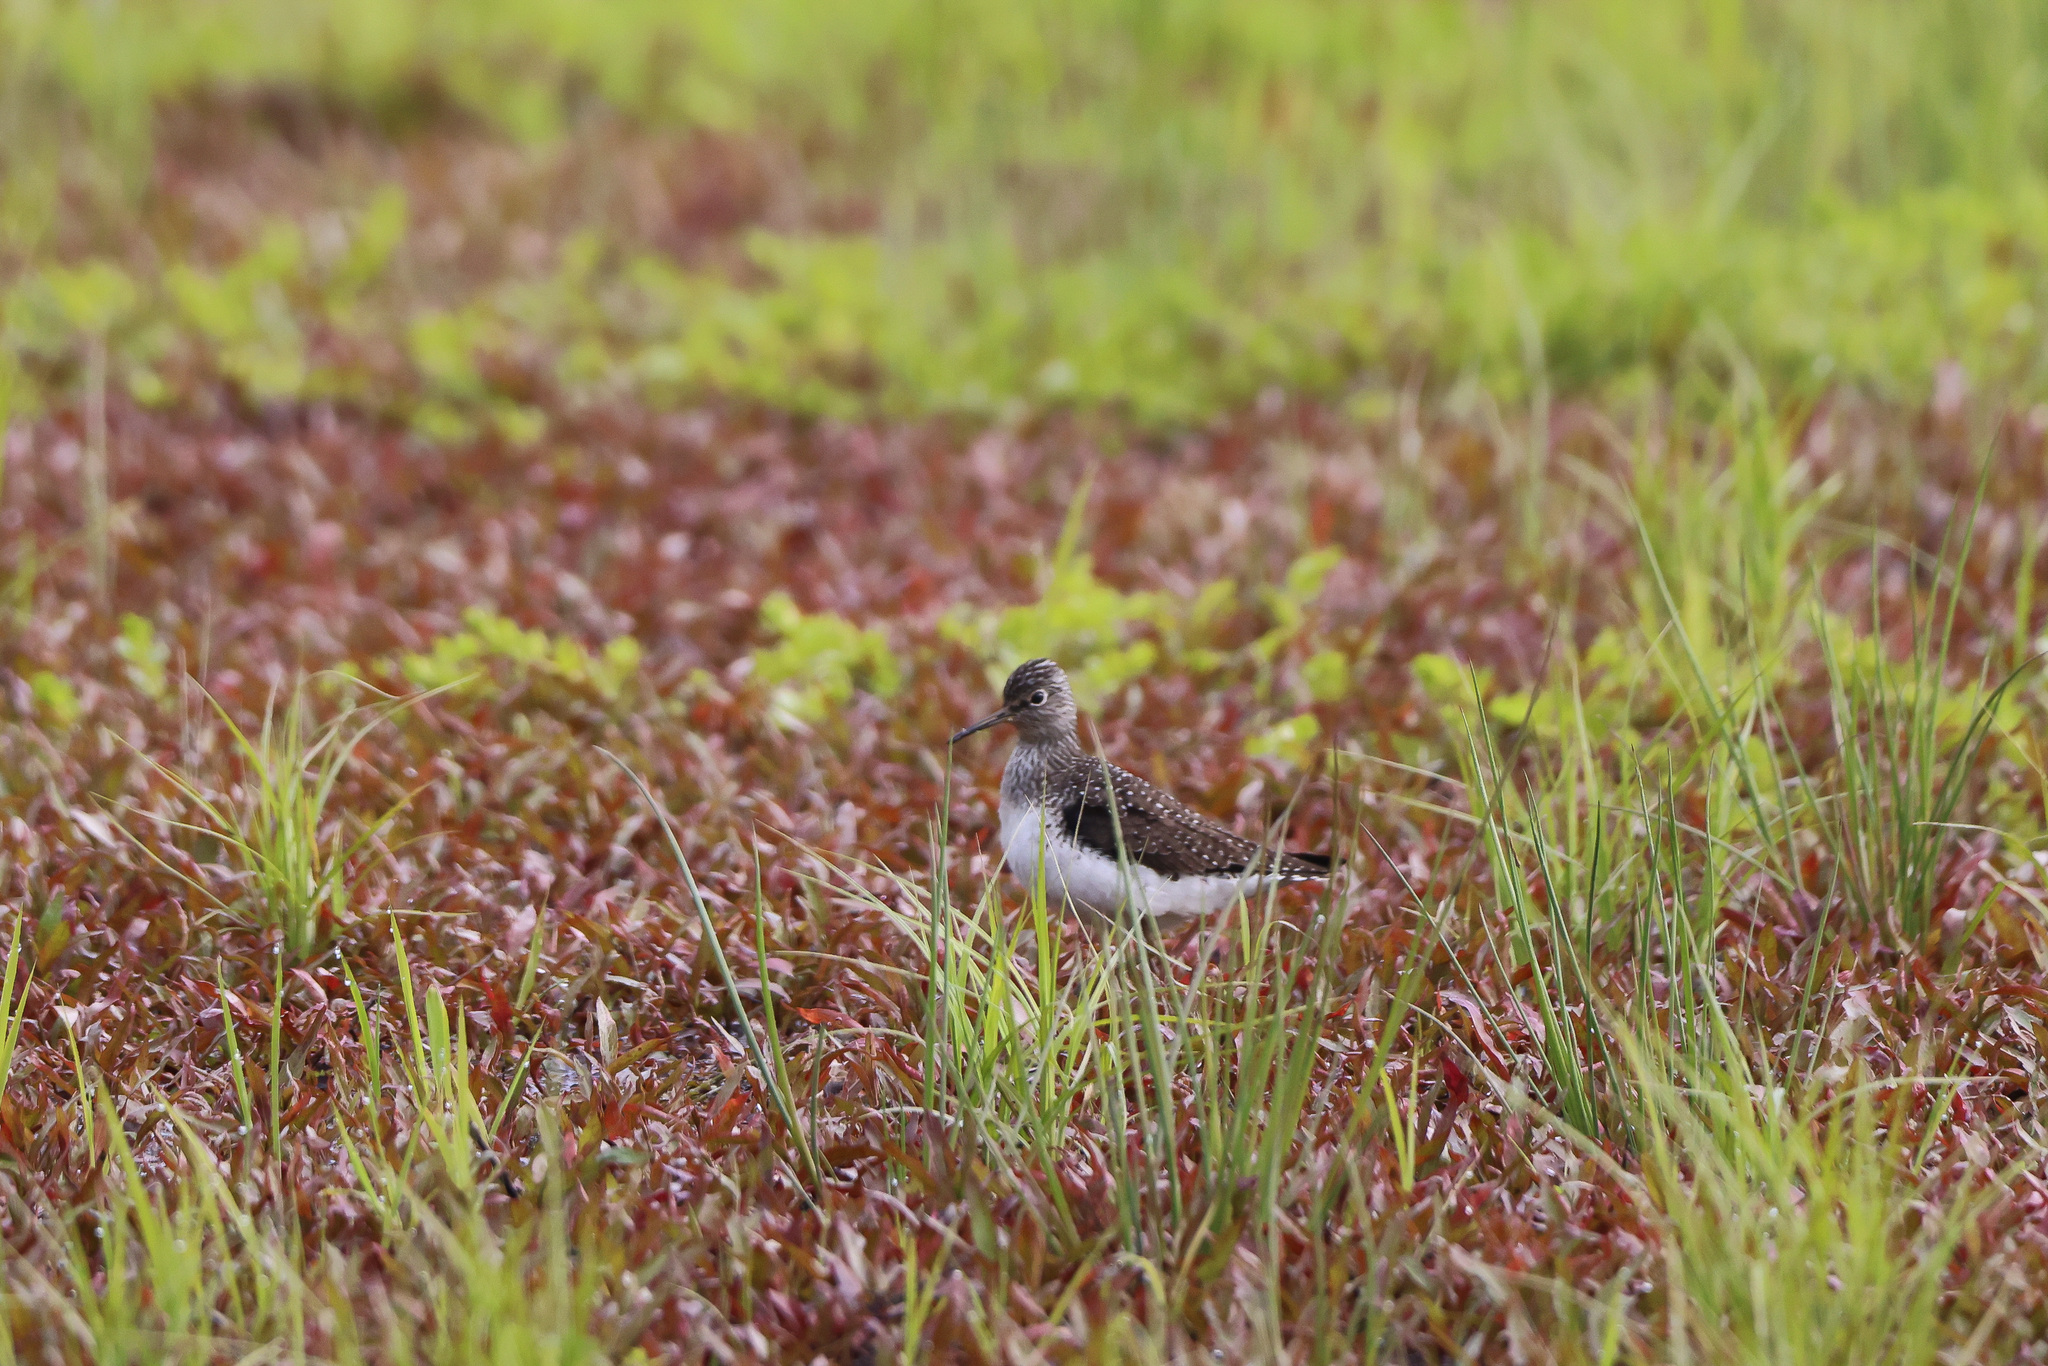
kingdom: Animalia
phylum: Chordata
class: Aves
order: Charadriiformes
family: Scolopacidae
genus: Tringa
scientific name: Tringa solitaria
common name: Solitary sandpiper
